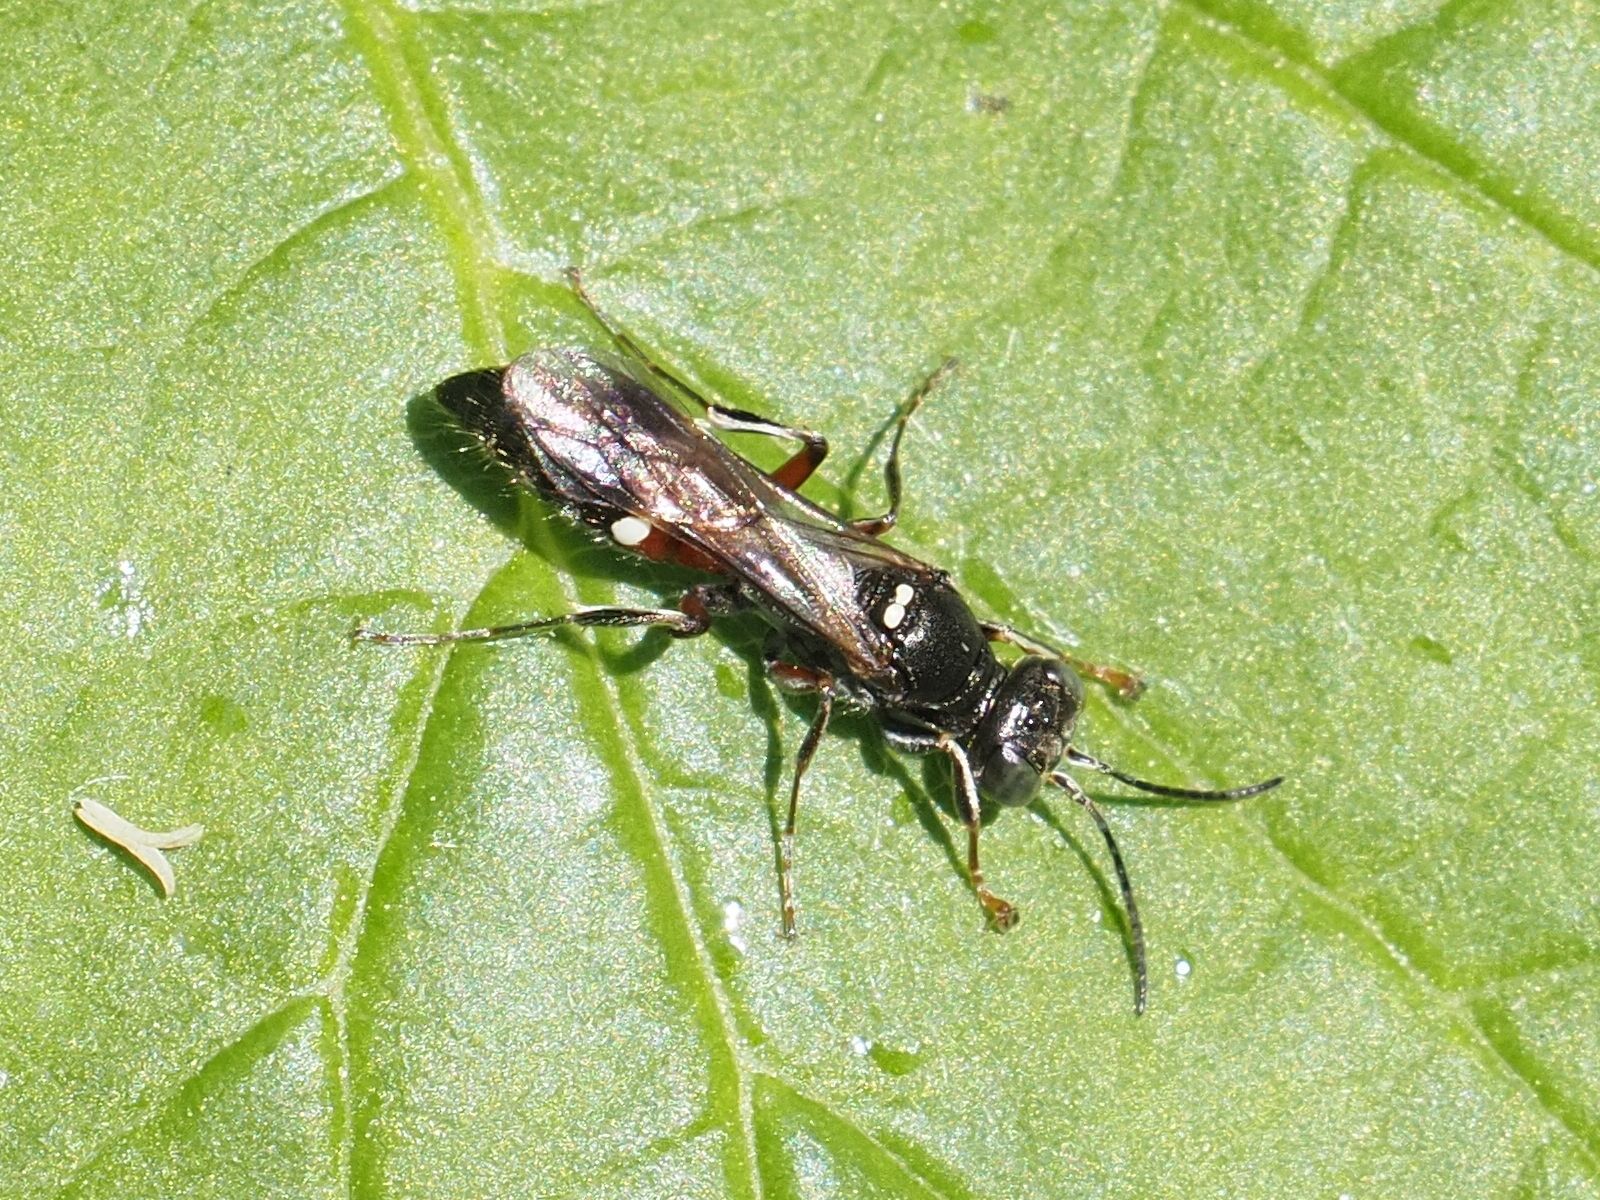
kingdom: Animalia
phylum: Arthropoda
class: Insecta
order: Hymenoptera
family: Crabronidae
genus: Alysson
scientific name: Alysson spinosus
